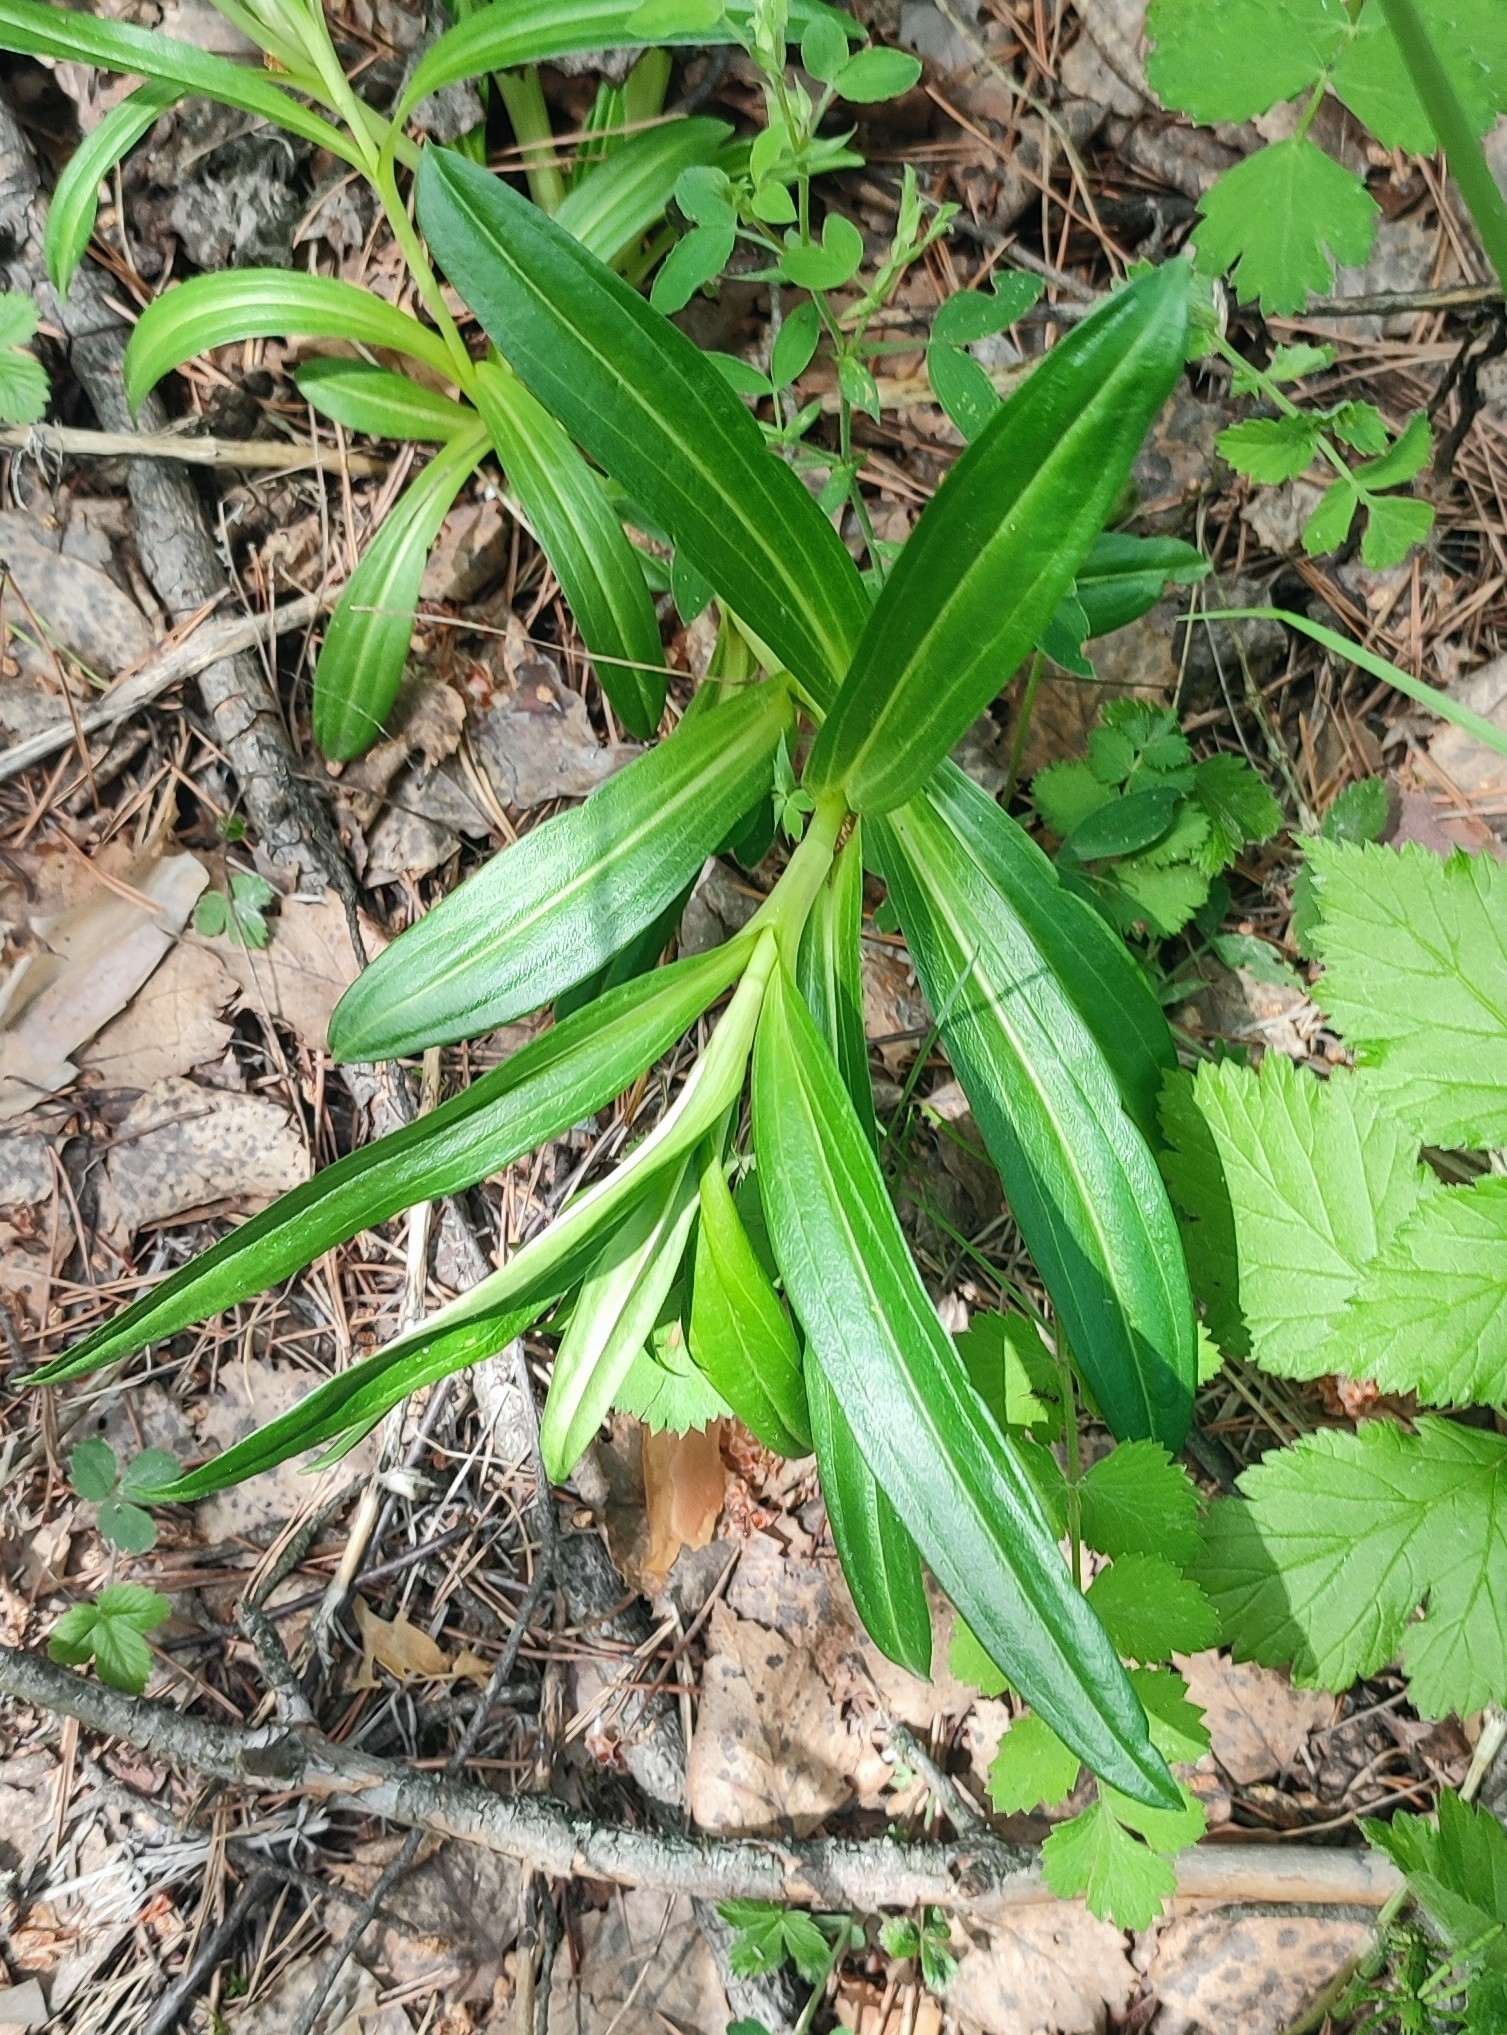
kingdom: Plantae
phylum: Tracheophyta
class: Magnoliopsida
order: Gentianales
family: Gentianaceae
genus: Gentiana
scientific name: Gentiana cruciata
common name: Cross gentian
